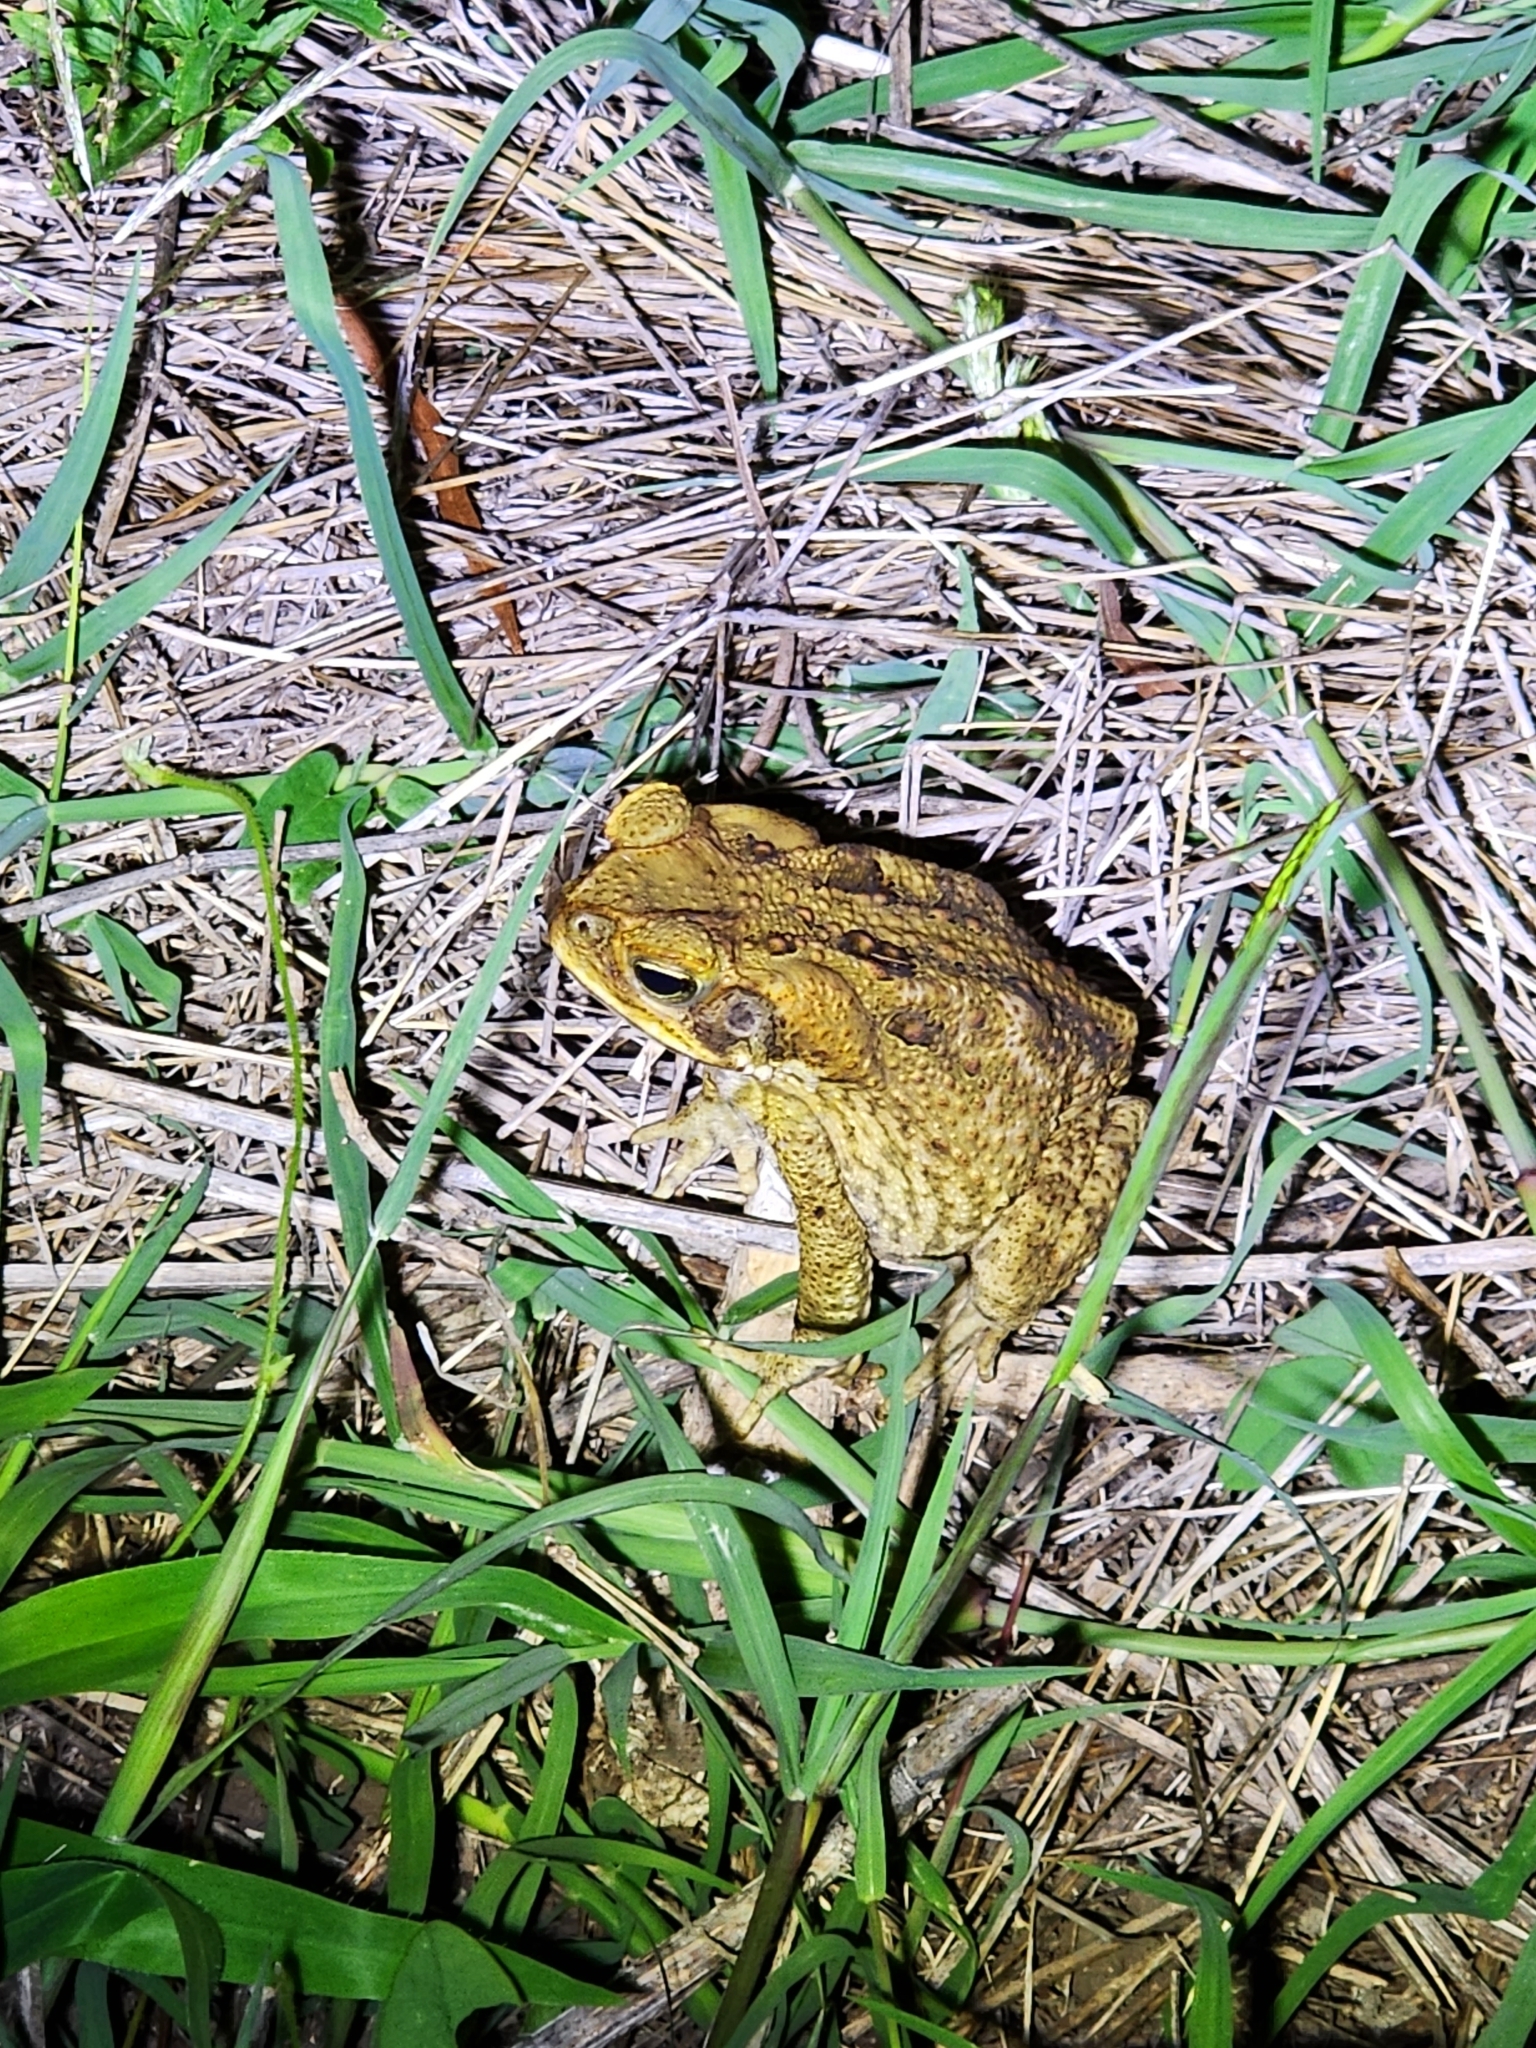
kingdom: Animalia
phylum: Chordata
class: Amphibia
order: Anura
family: Bufonidae
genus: Rhinella
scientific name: Rhinella marina
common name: Cane toad
